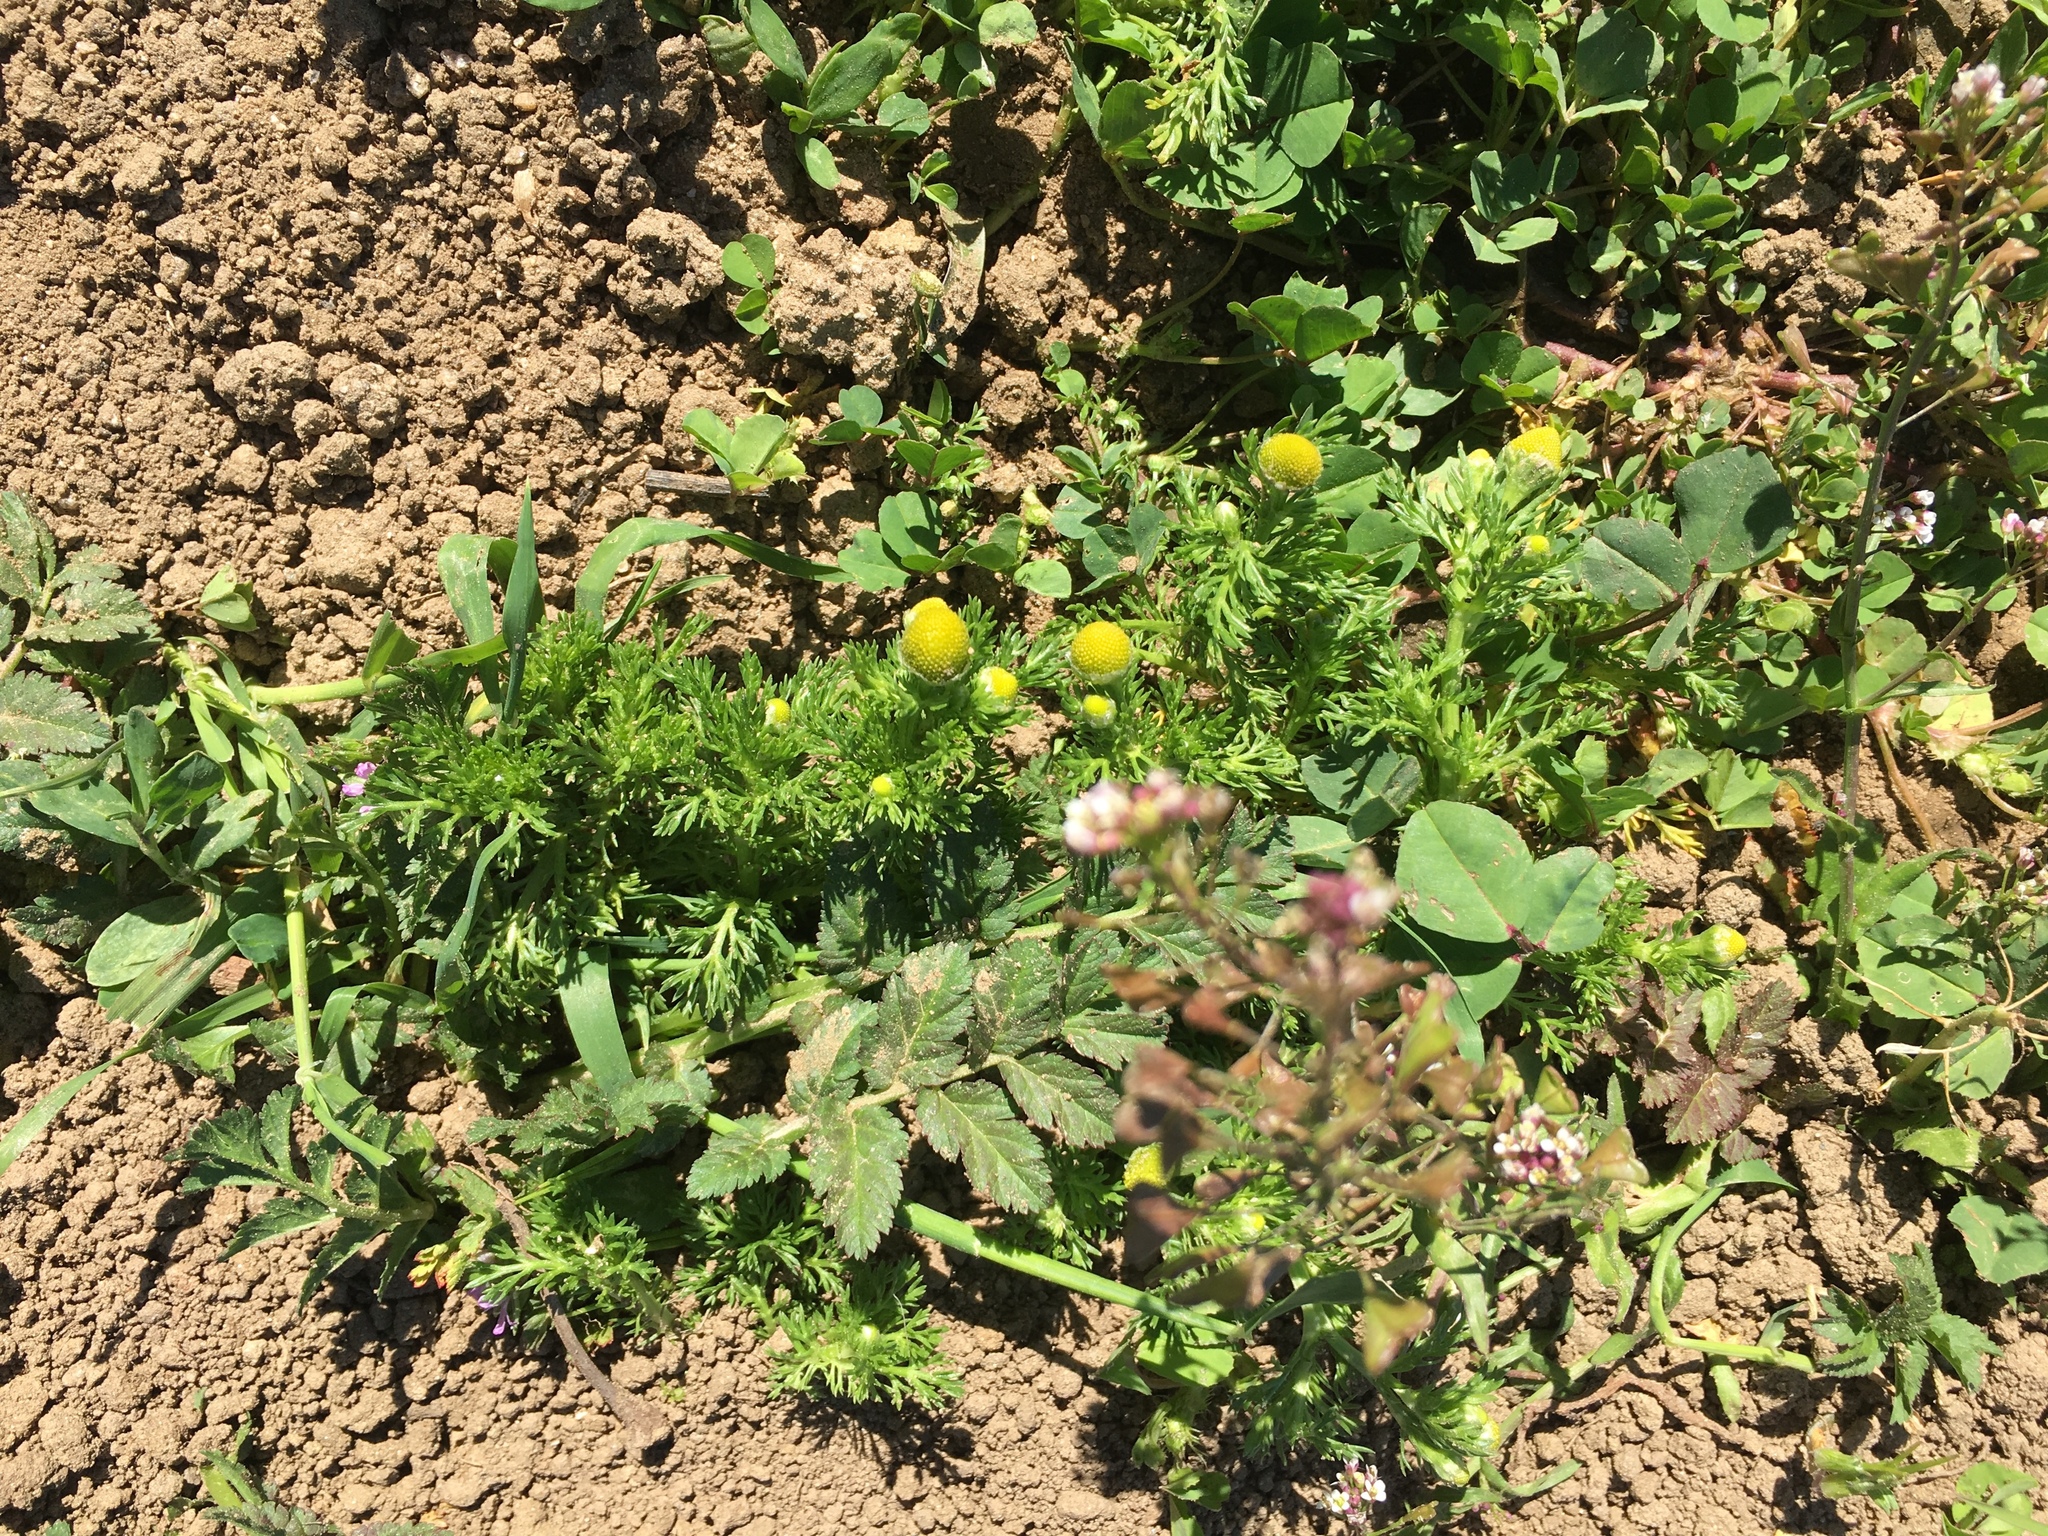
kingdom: Plantae
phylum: Tracheophyta
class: Magnoliopsida
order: Asterales
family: Asteraceae
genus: Matricaria
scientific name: Matricaria discoidea
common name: Disc mayweed
